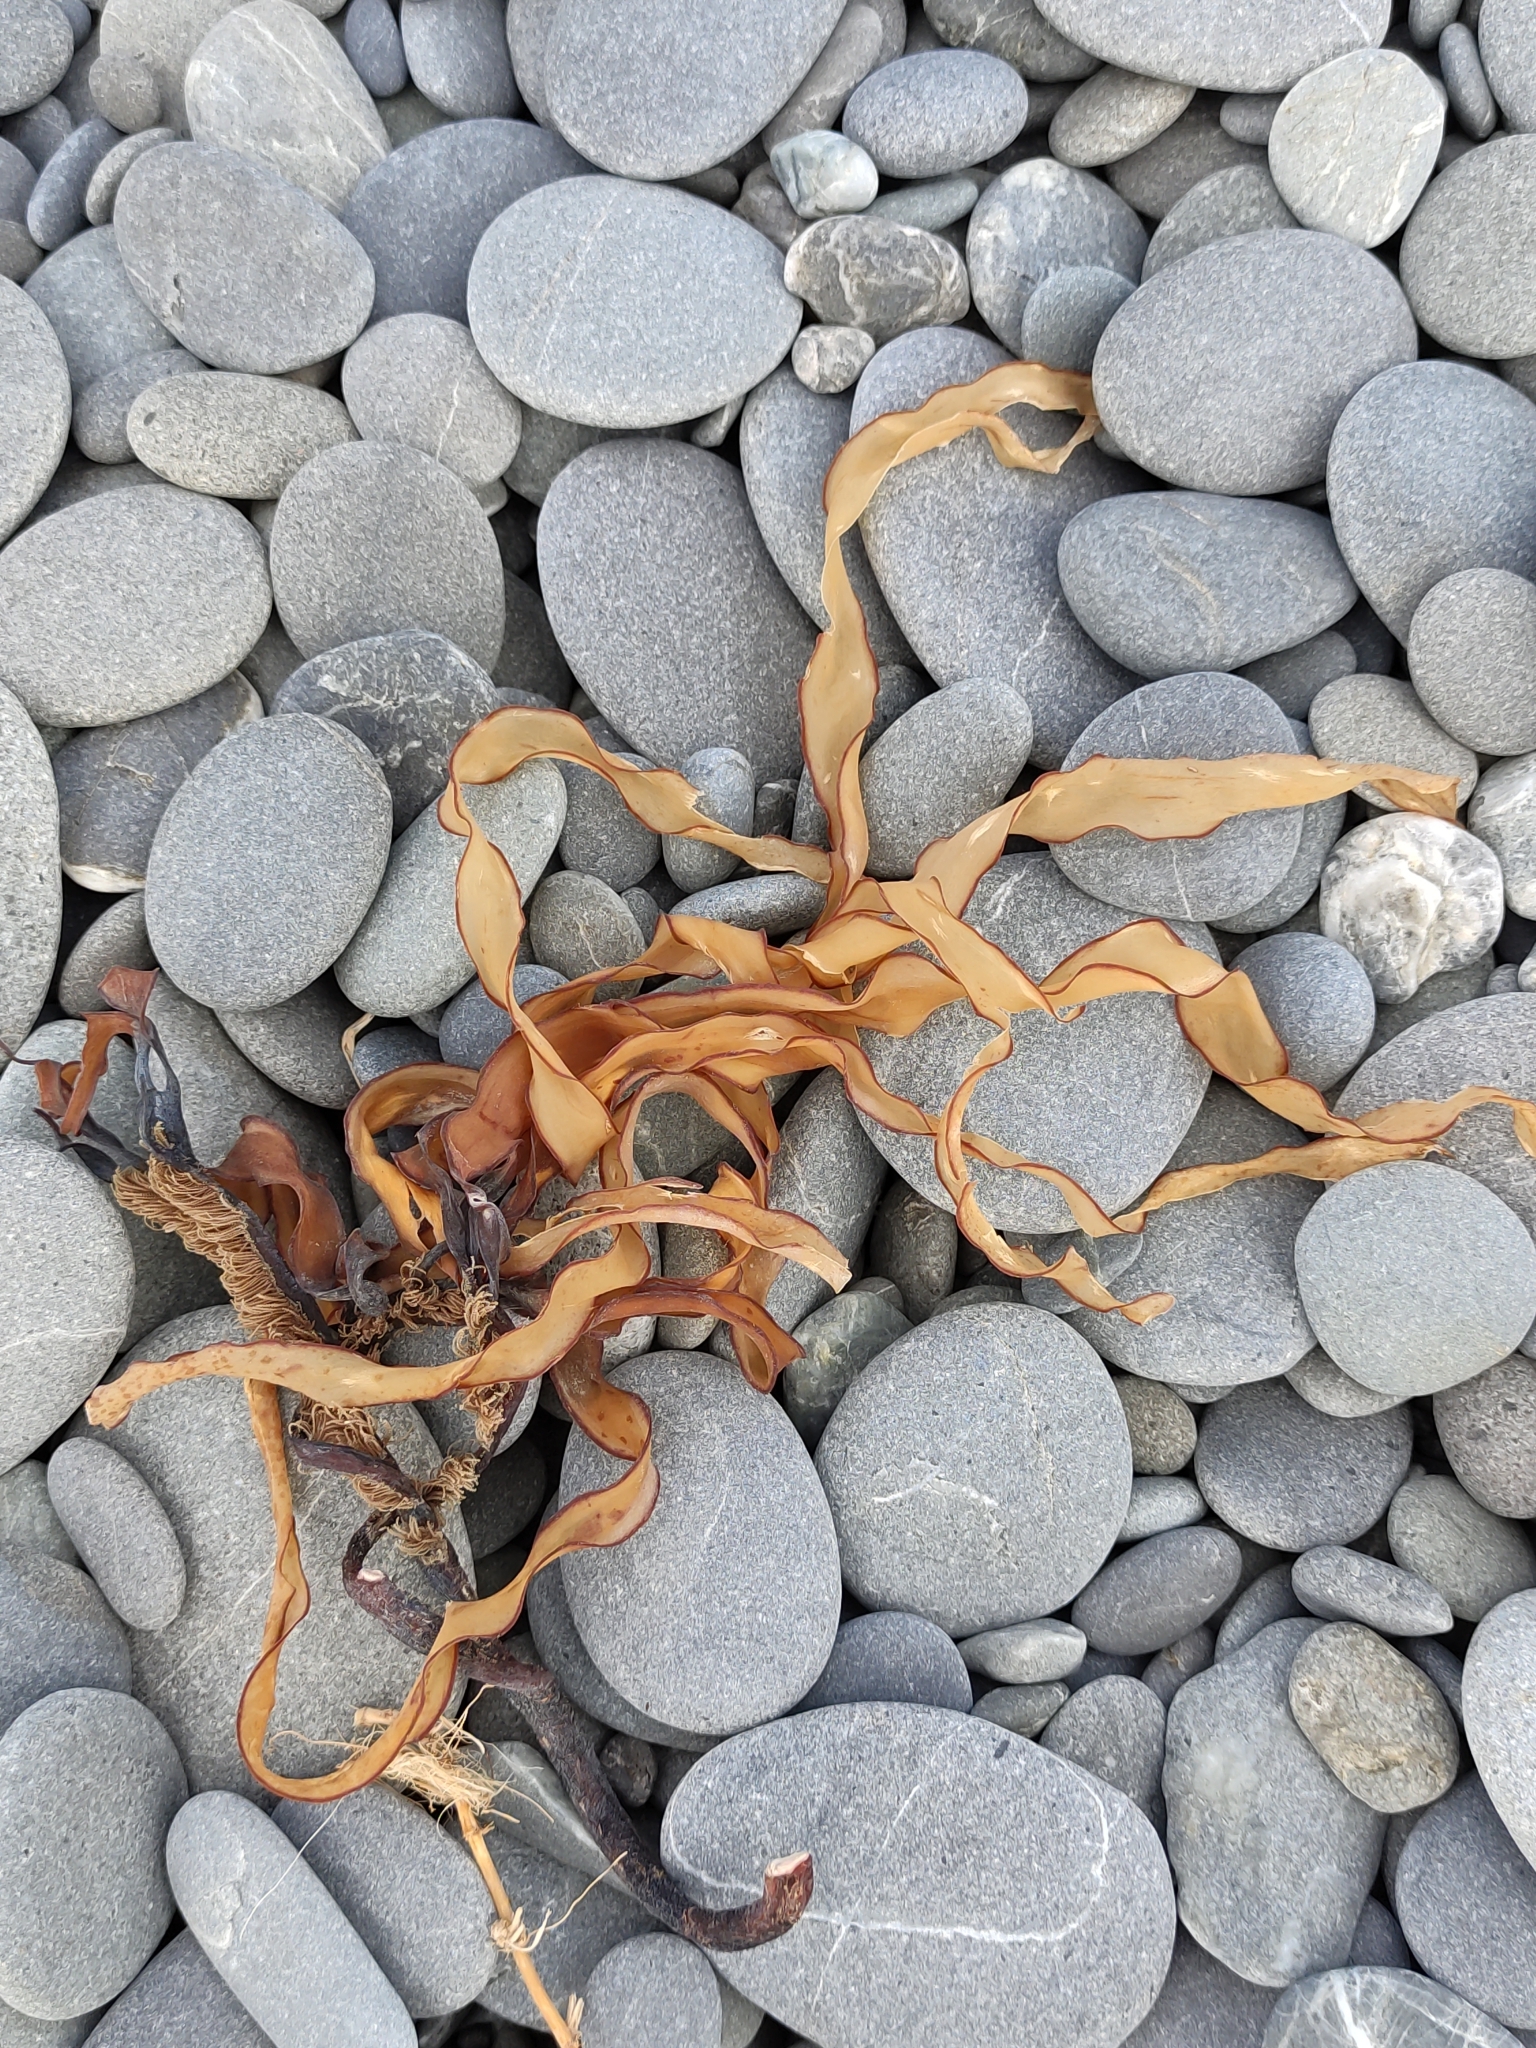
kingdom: Chromista
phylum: Ochrophyta
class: Phaeophyceae
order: Fucales
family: Seirococcaceae
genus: Marginariella
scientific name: Marginariella boryana
